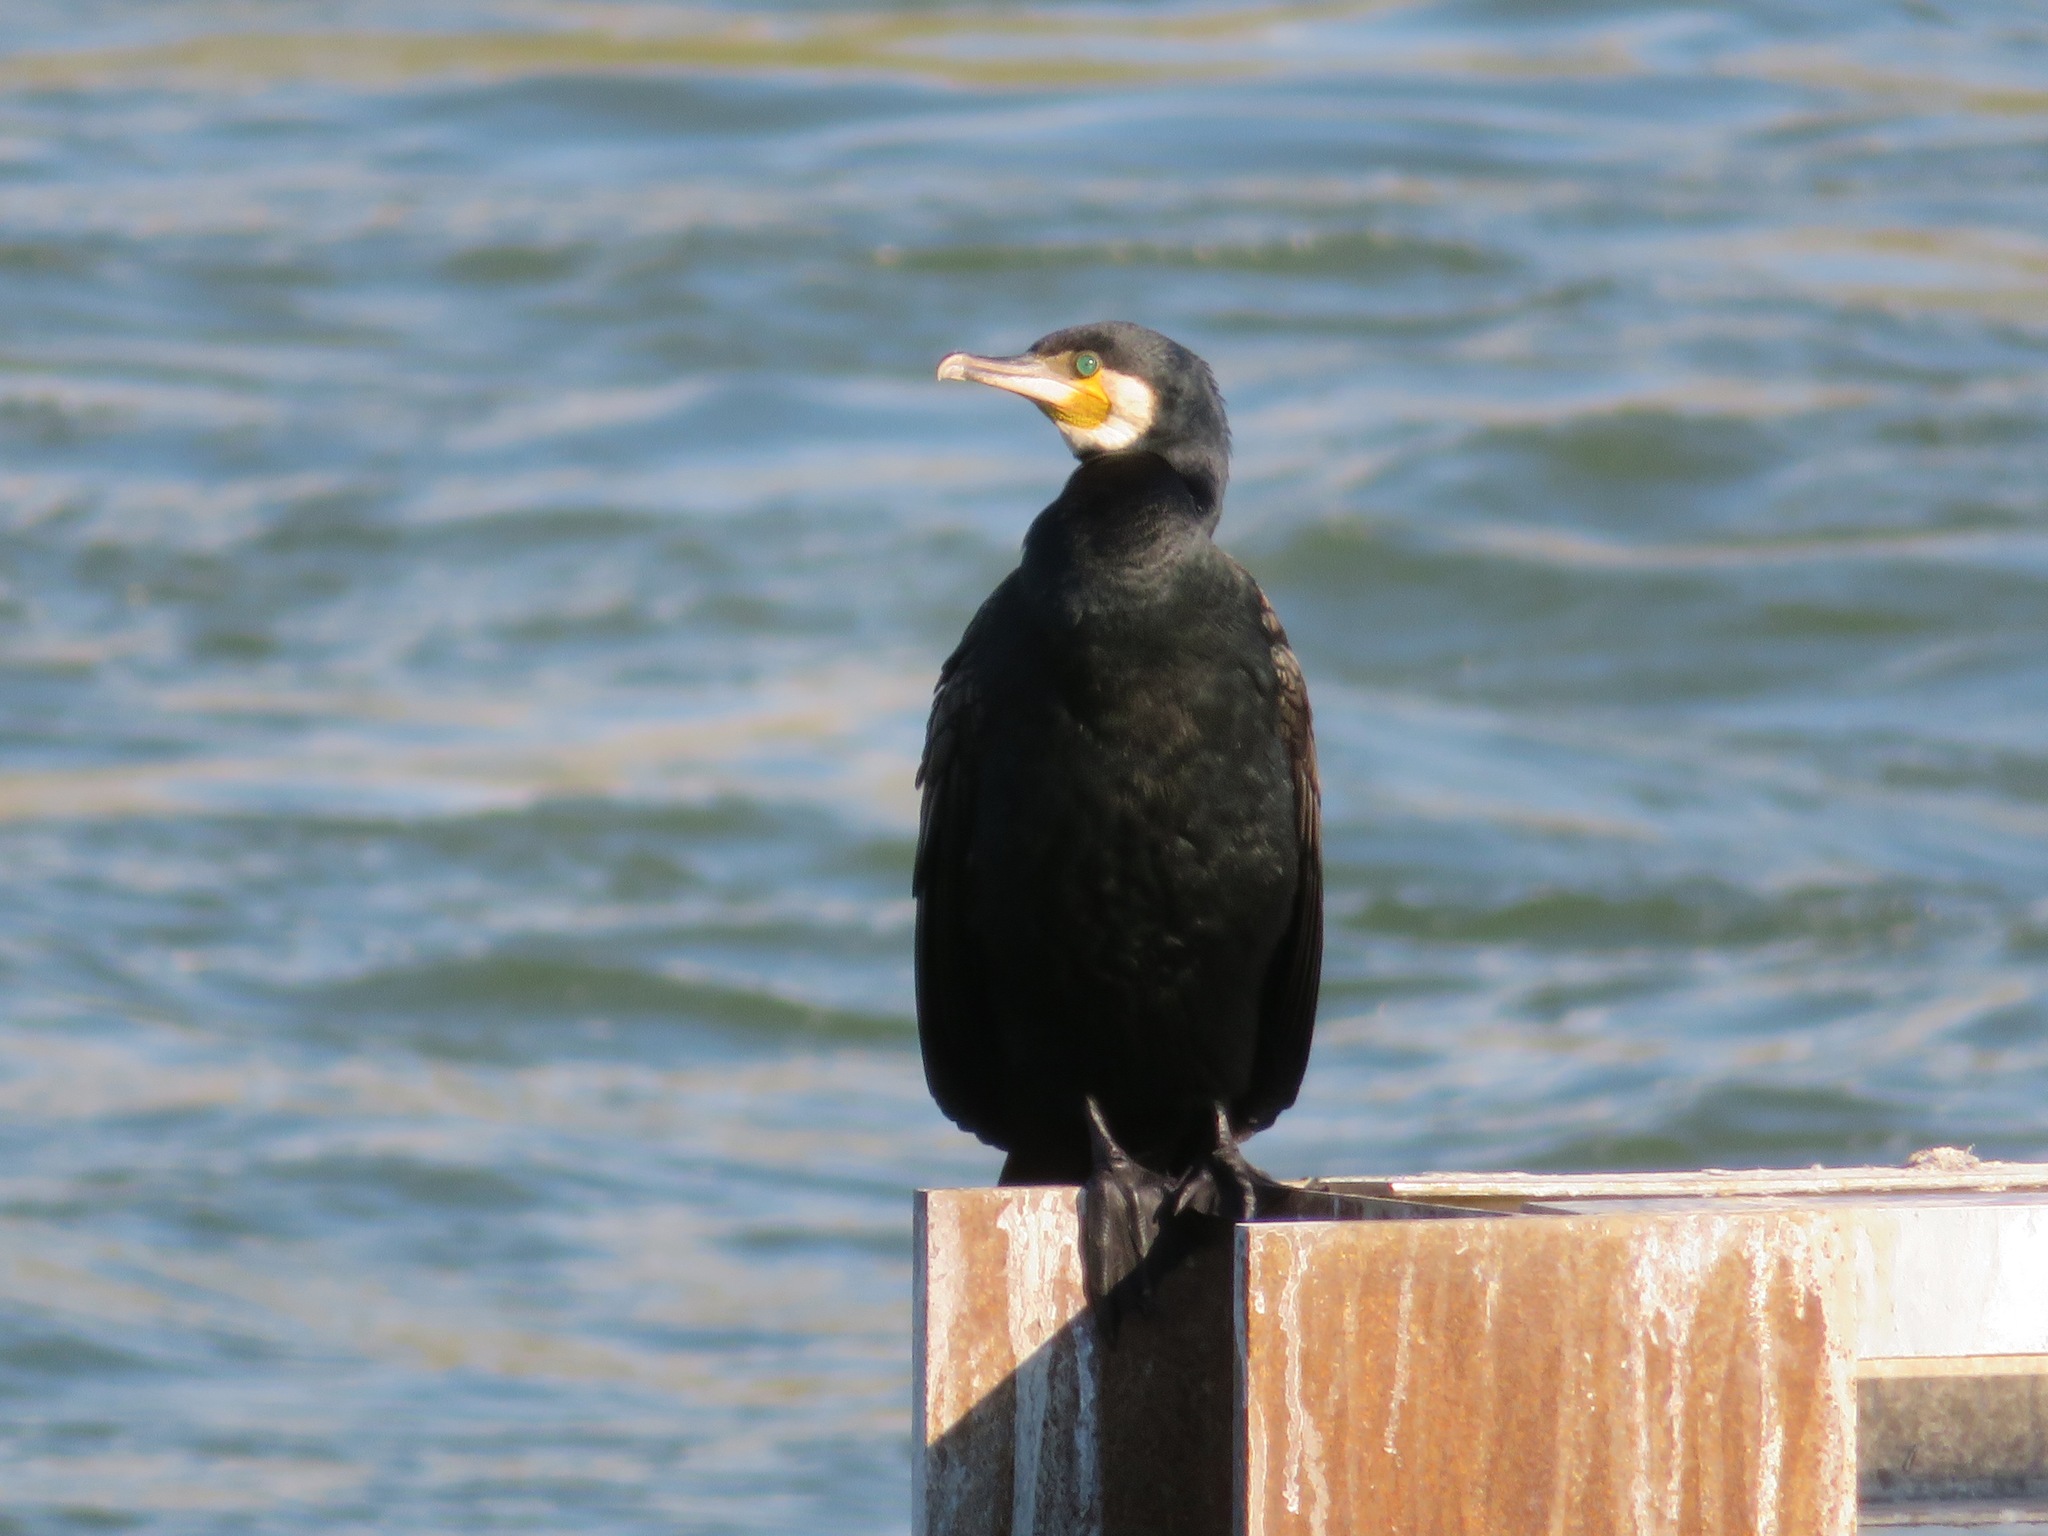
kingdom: Animalia
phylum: Chordata
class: Aves
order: Suliformes
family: Phalacrocoracidae
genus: Phalacrocorax
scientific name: Phalacrocorax carbo
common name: Great cormorant
